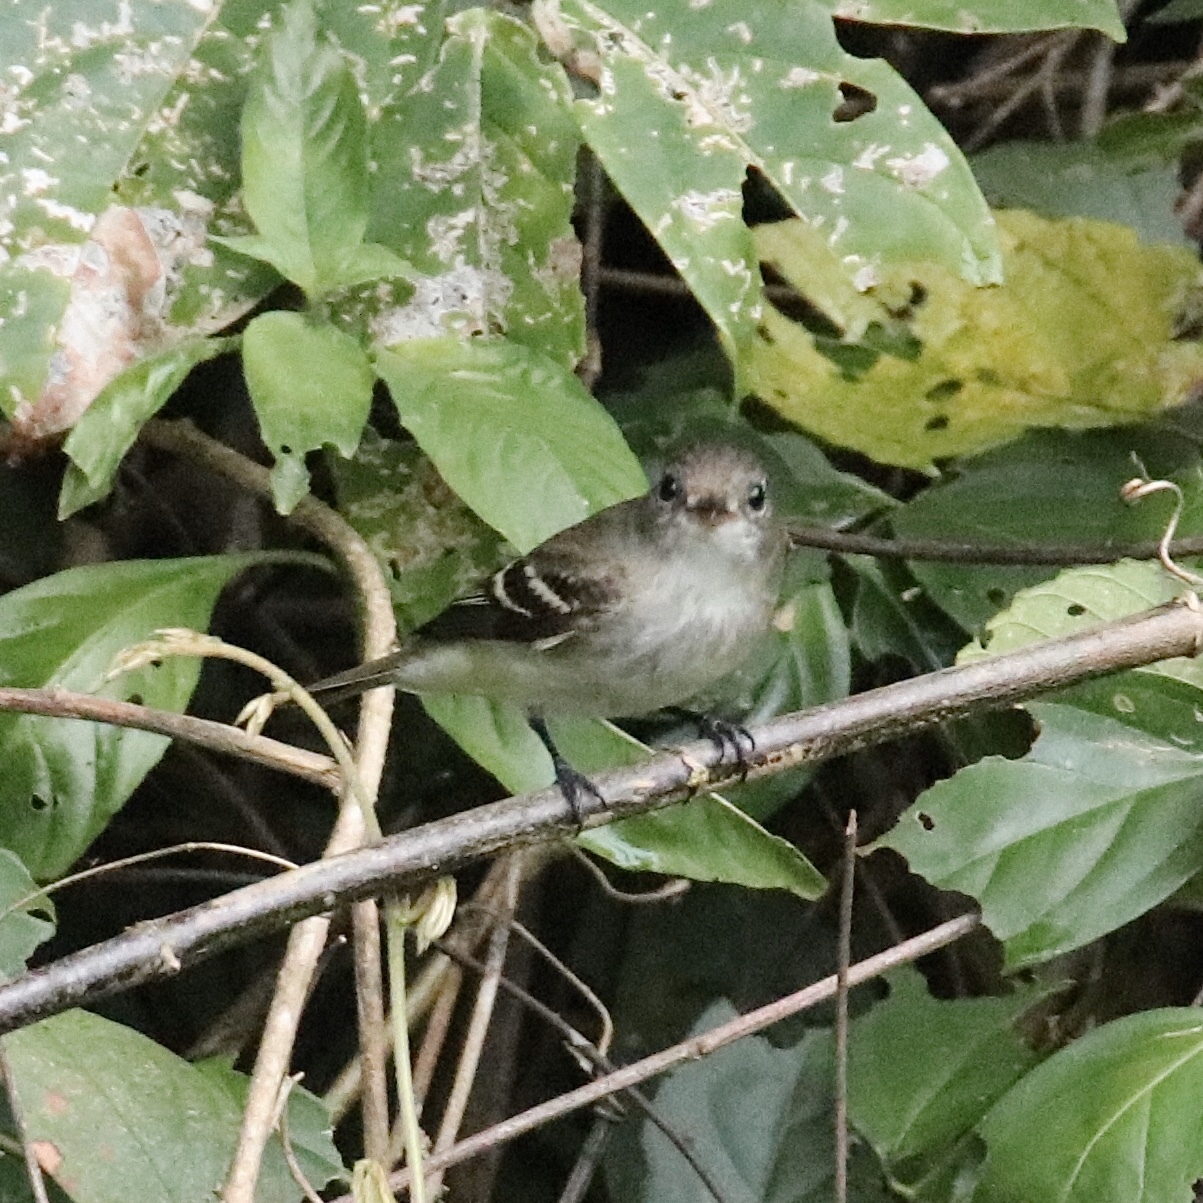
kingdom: Animalia
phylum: Chordata
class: Aves
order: Passeriformes
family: Tyrannidae
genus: Empidonax
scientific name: Empidonax virescens
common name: Acadian flycatcher
